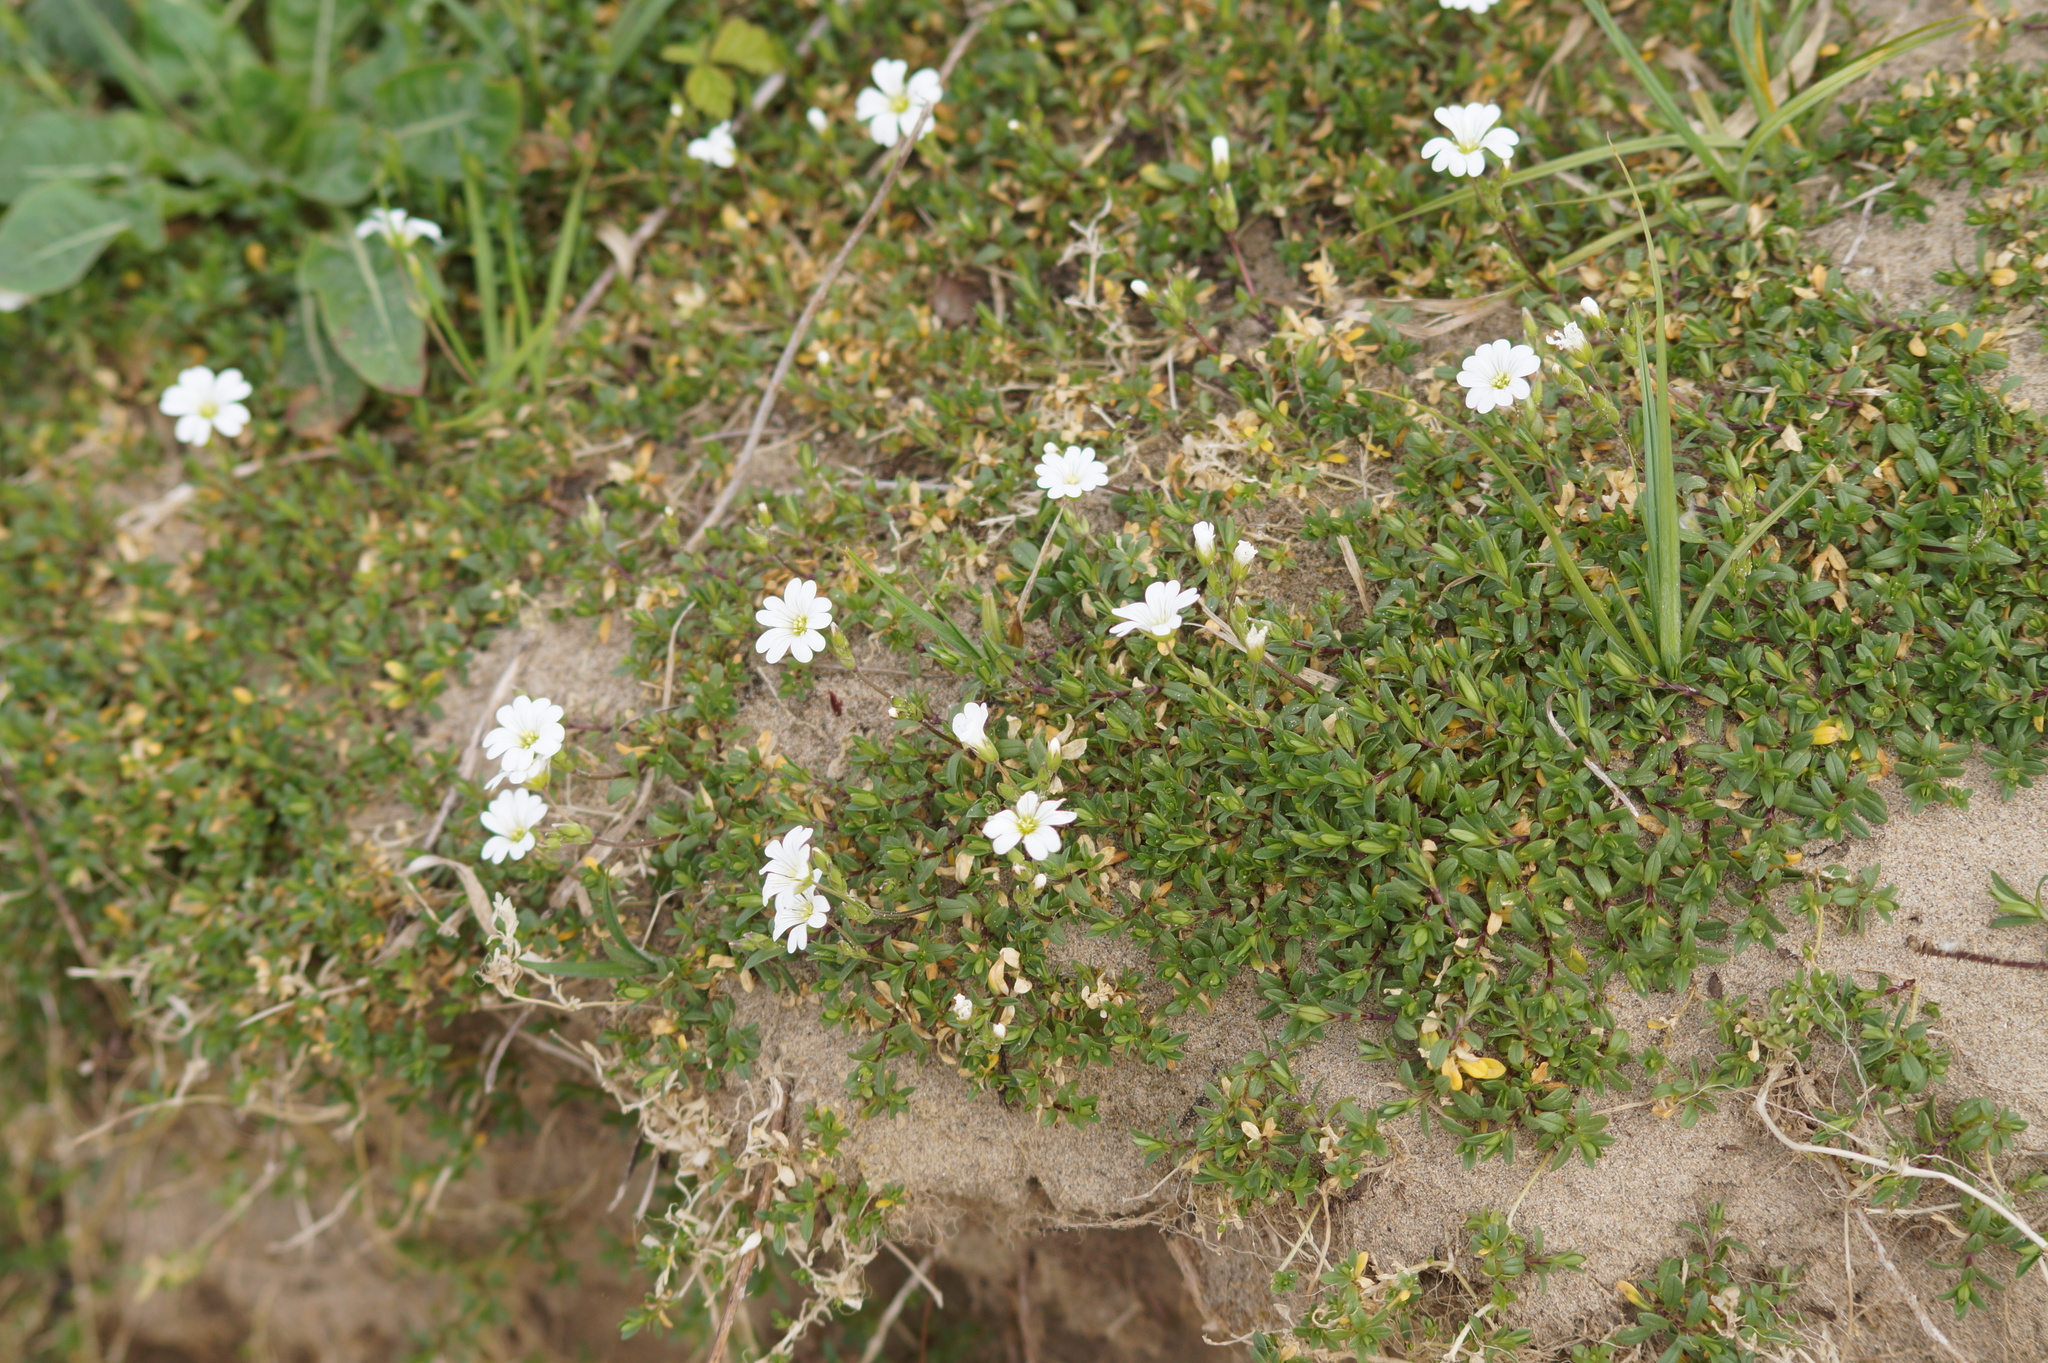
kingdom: Plantae
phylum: Tracheophyta
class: Magnoliopsida
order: Caryophyllales
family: Caryophyllaceae
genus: Cerastium
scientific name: Cerastium arvense
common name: Field mouse-ear
